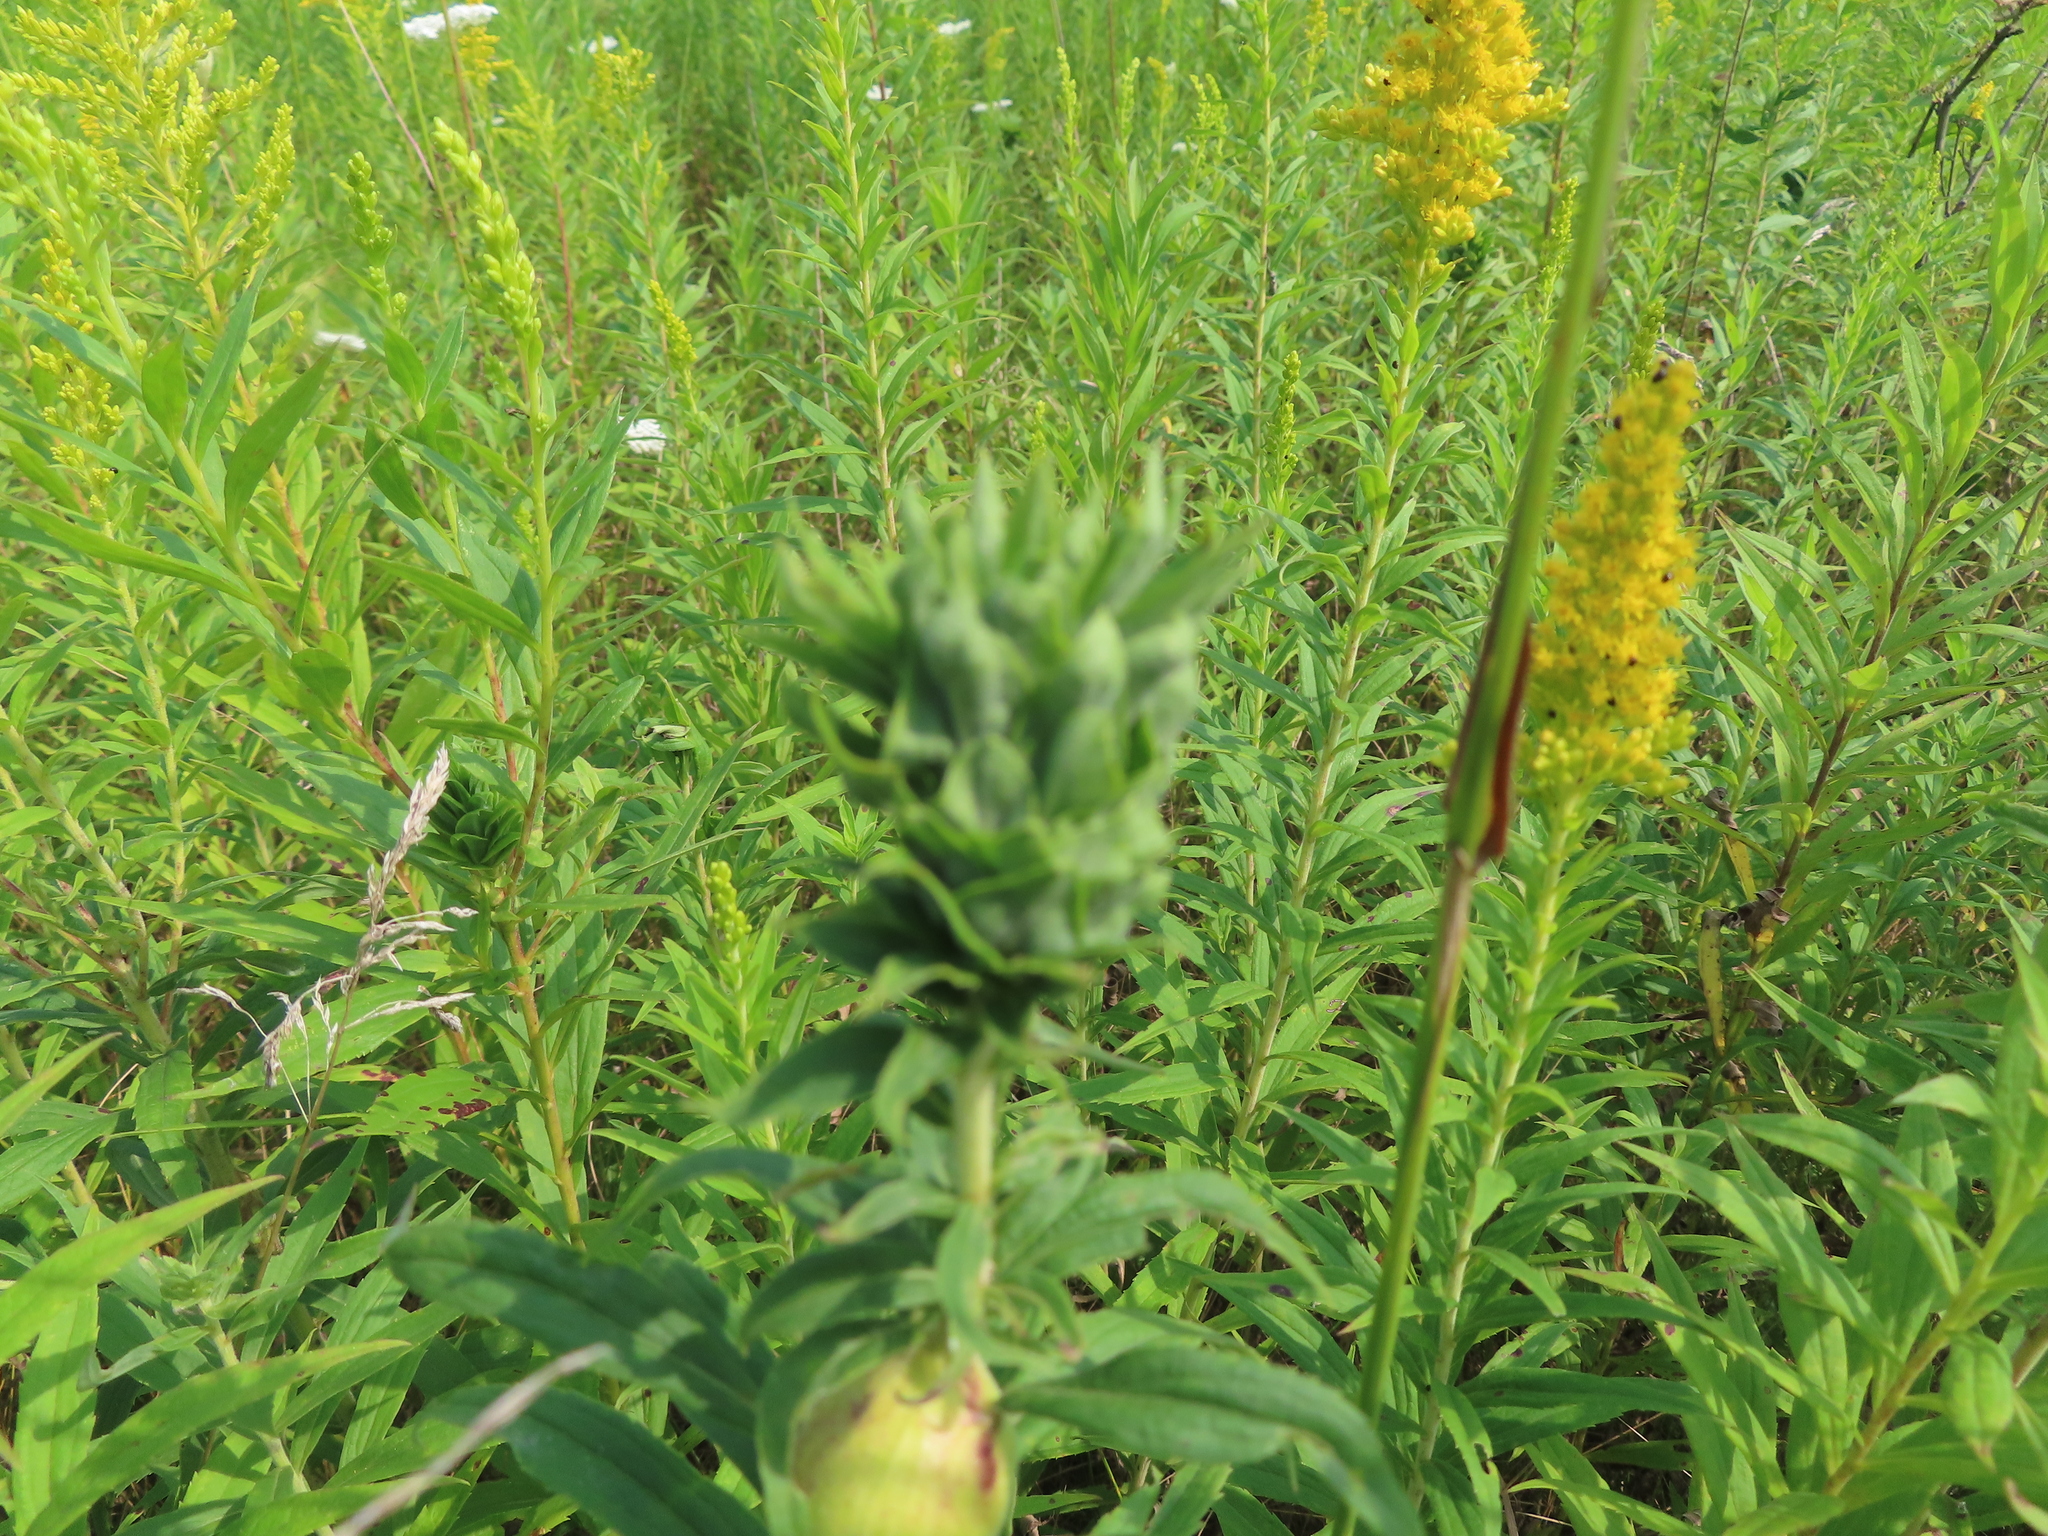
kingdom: Animalia
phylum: Arthropoda
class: Insecta
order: Diptera
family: Cecidomyiidae
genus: Rhopalomyia
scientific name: Rhopalomyia solidaginis
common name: Goldenrod bunch gall midge
